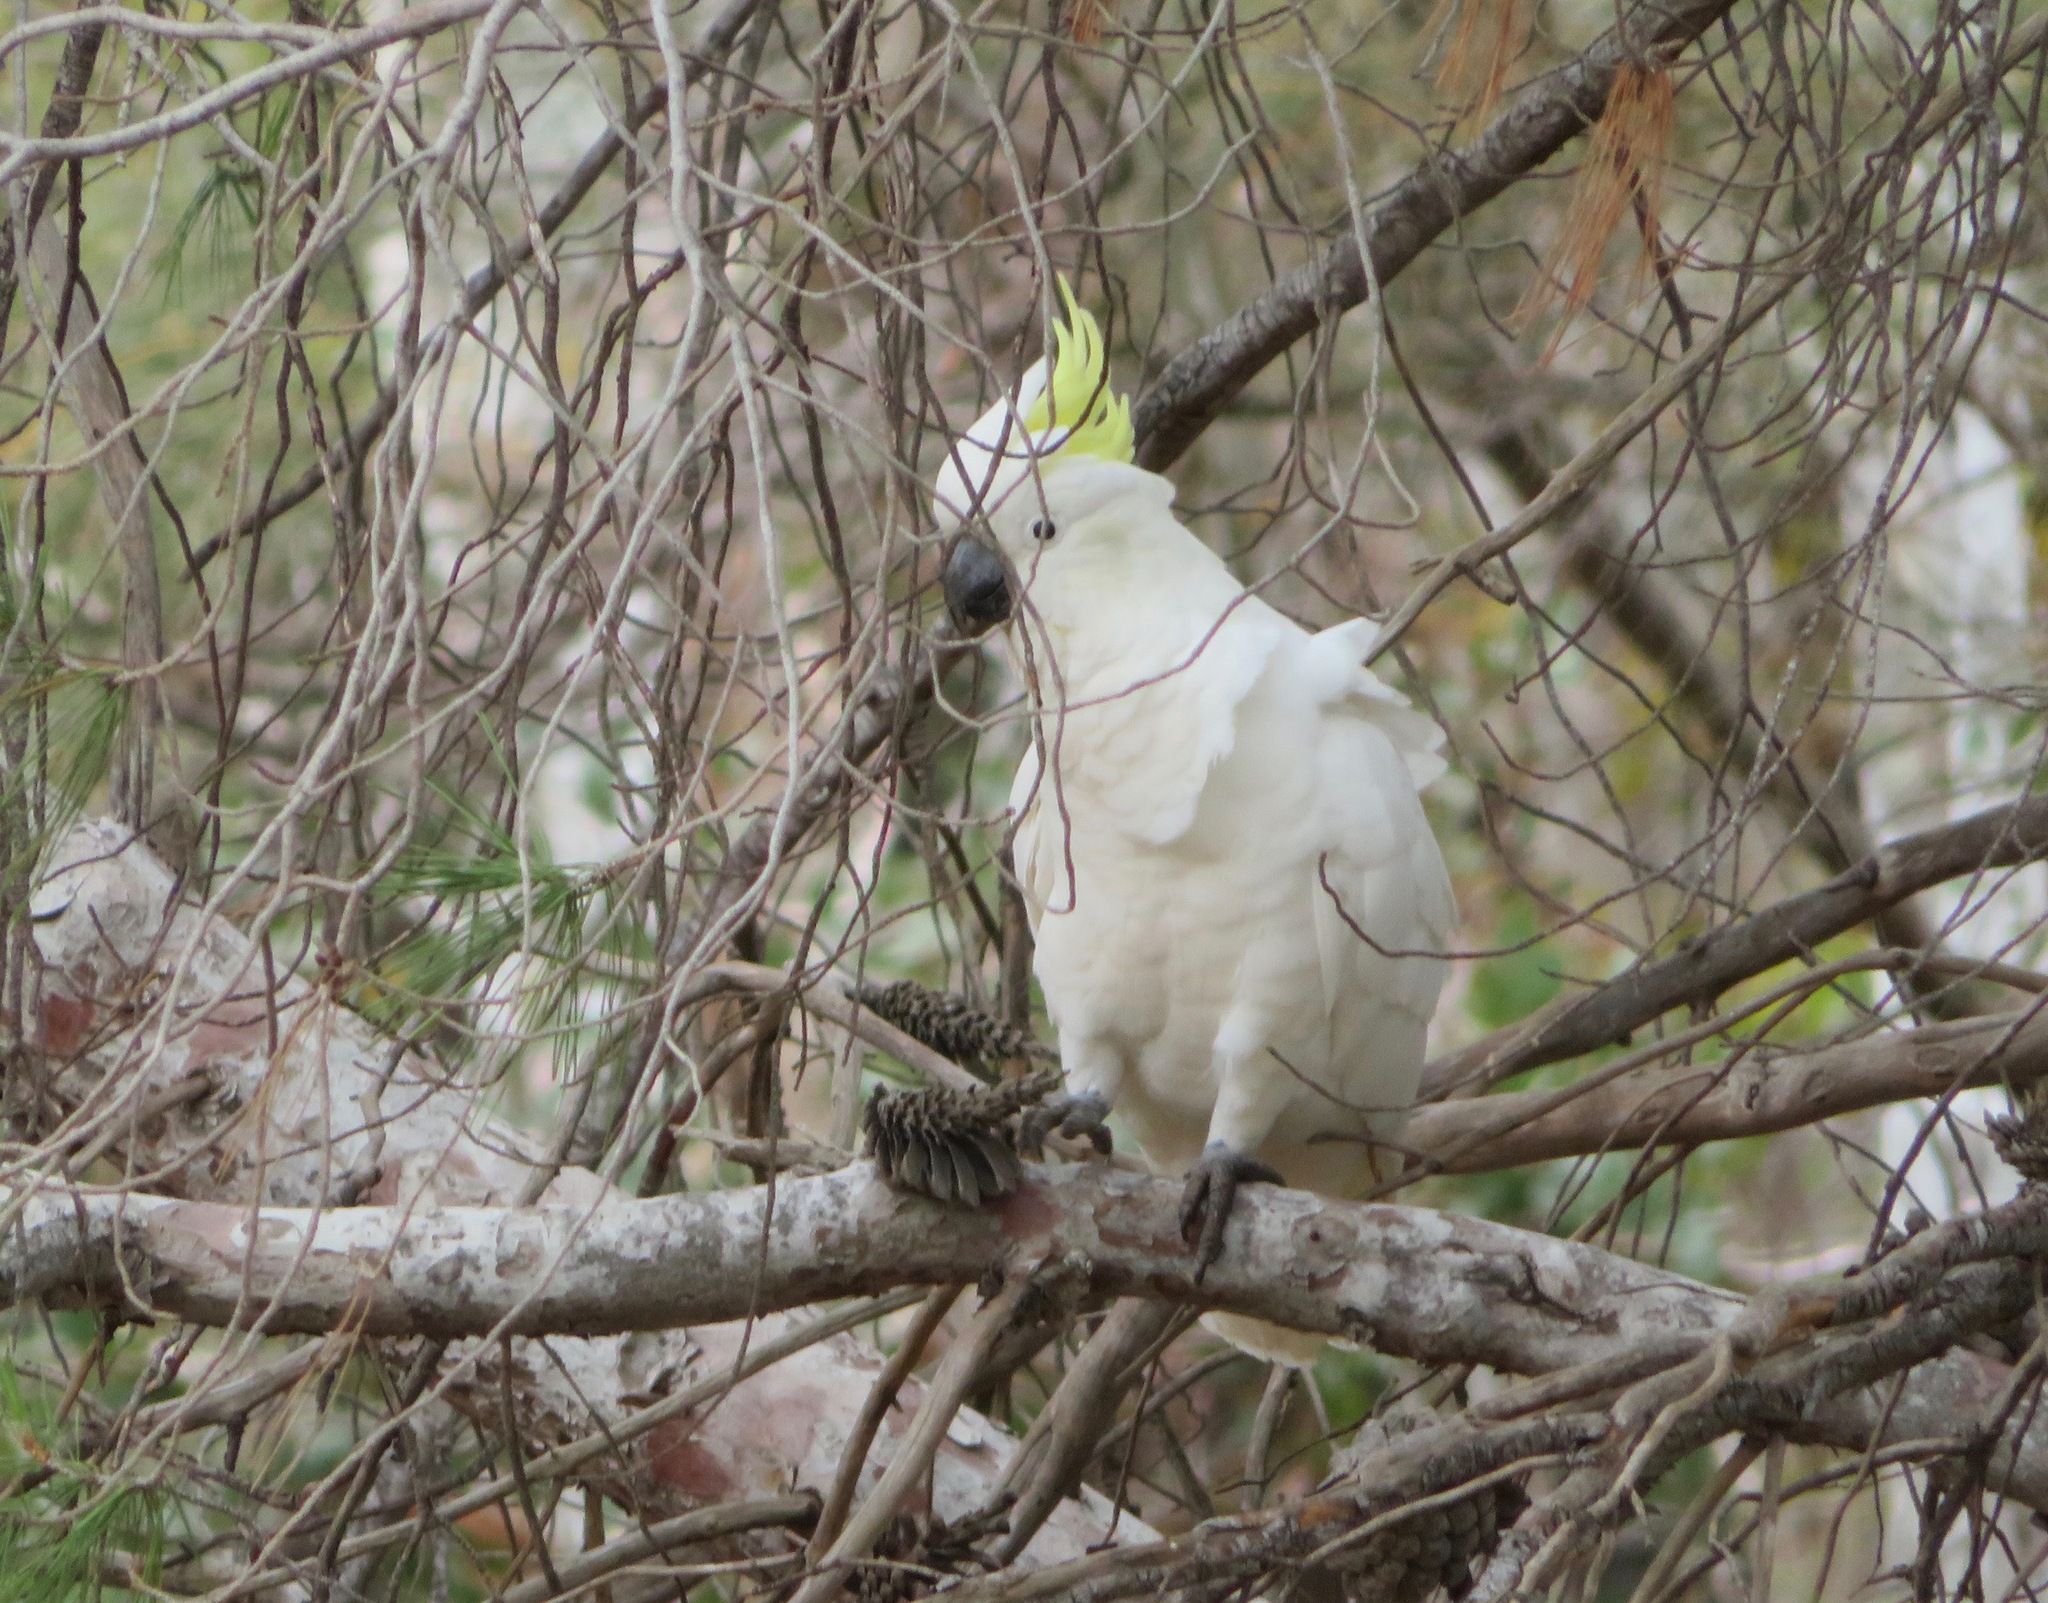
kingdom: Animalia
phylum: Chordata
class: Aves
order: Psittaciformes
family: Psittacidae
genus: Cacatua
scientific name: Cacatua galerita
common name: Sulphur-crested cockatoo
